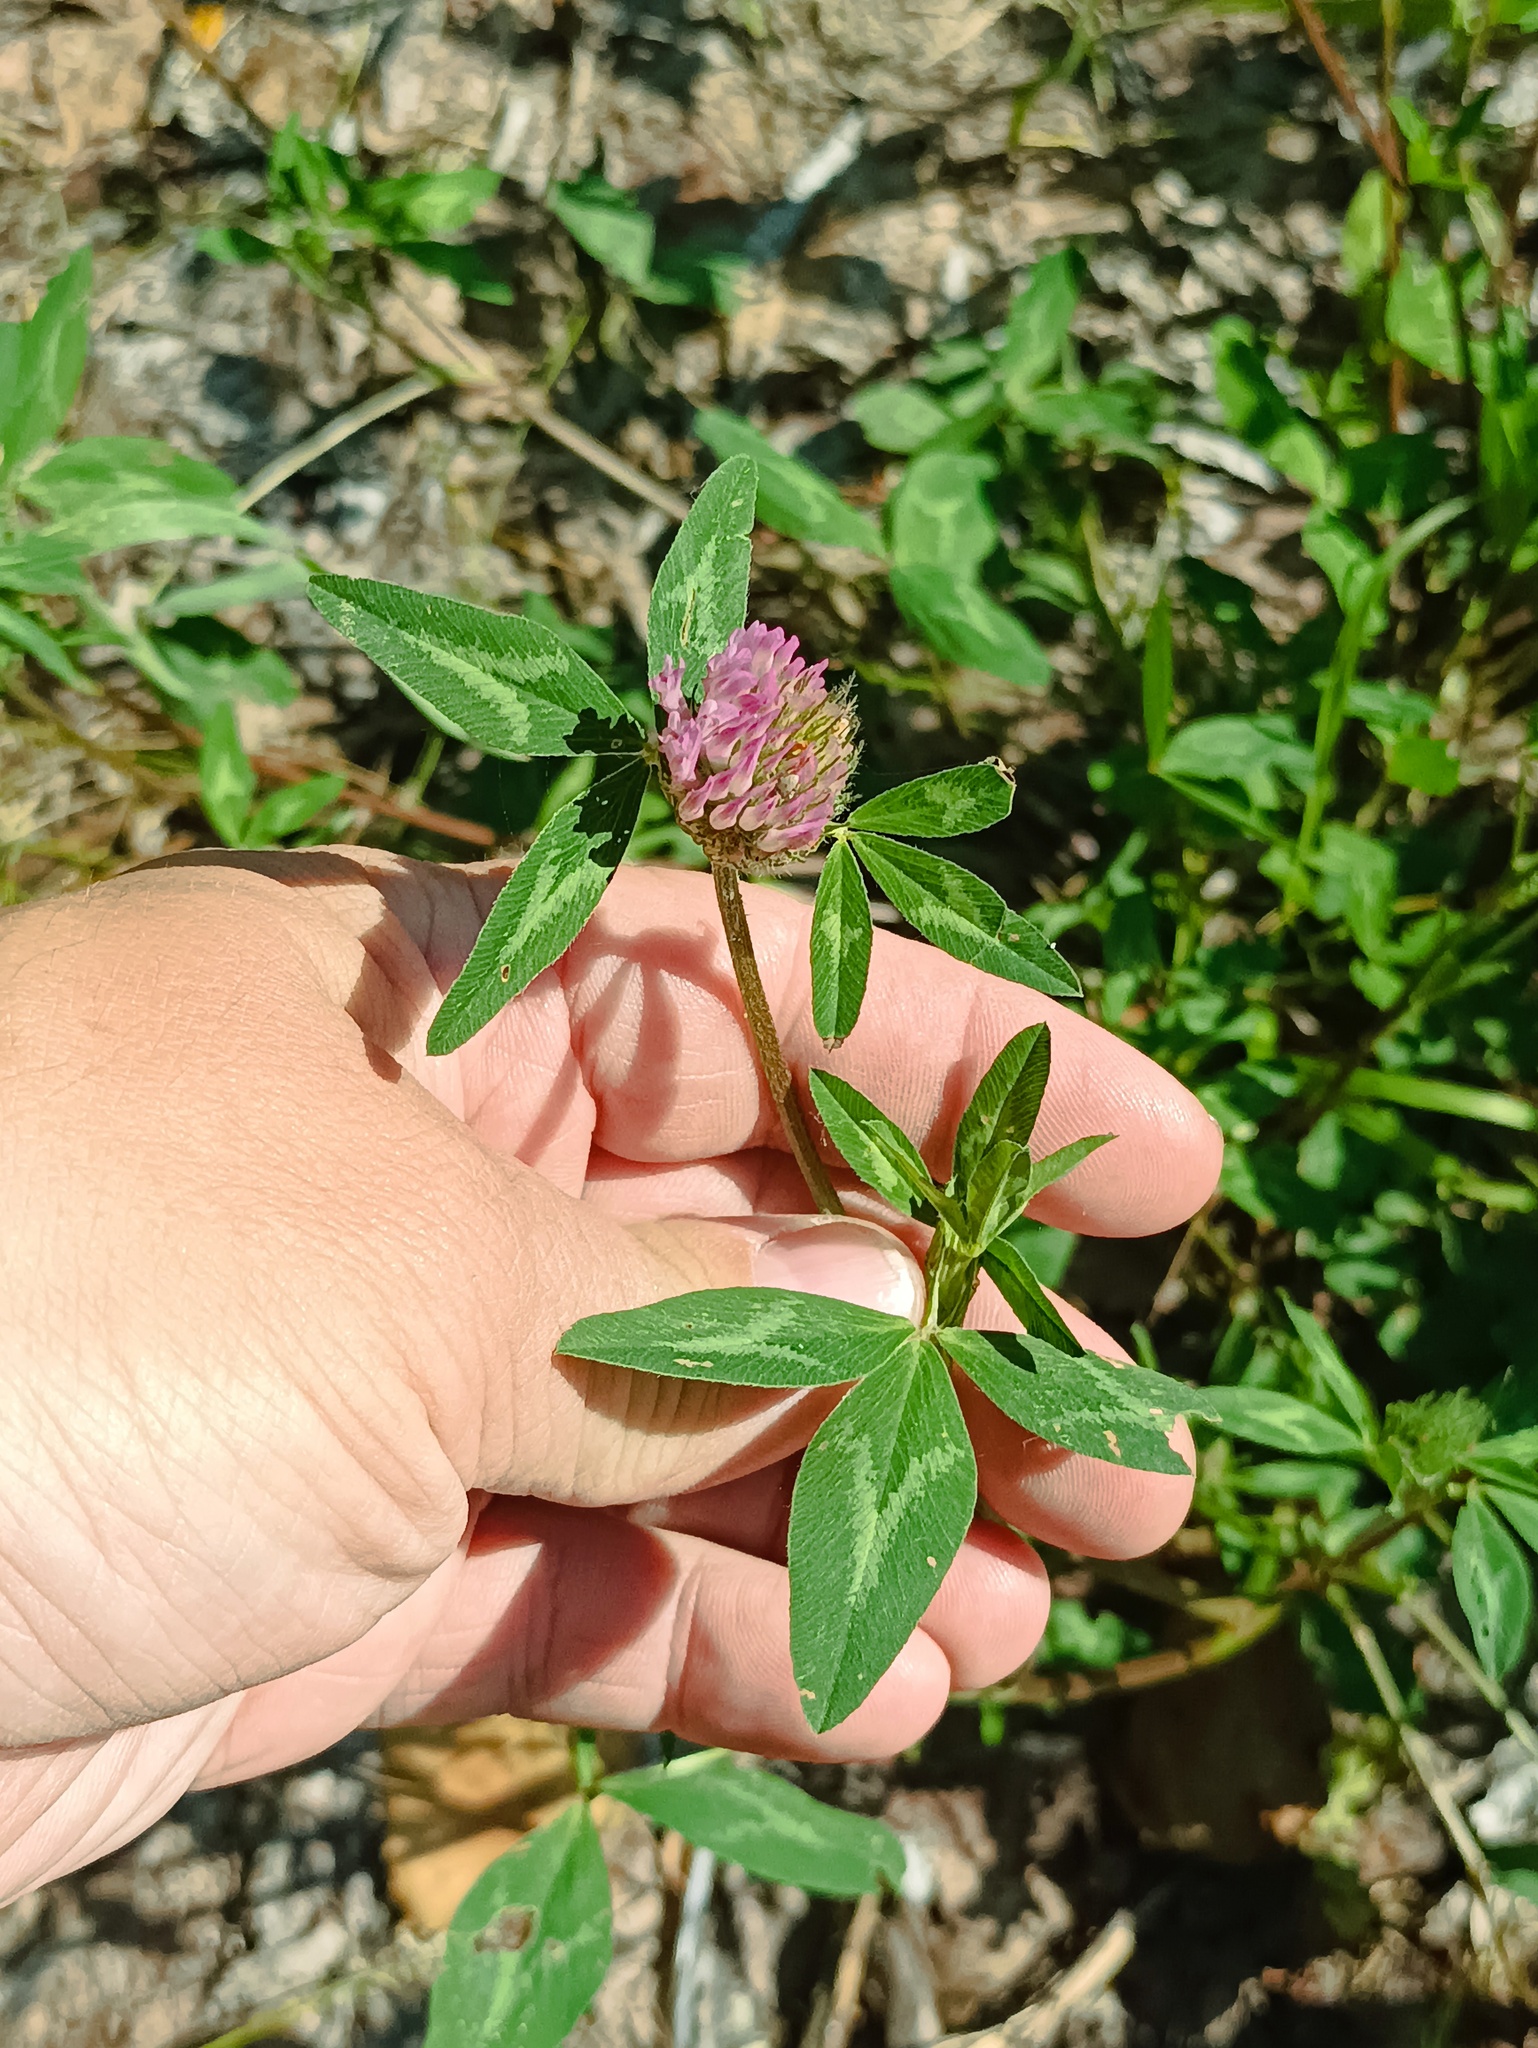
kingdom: Plantae
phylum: Tracheophyta
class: Magnoliopsida
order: Fabales
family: Fabaceae
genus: Trifolium
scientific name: Trifolium pratense
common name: Red clover
